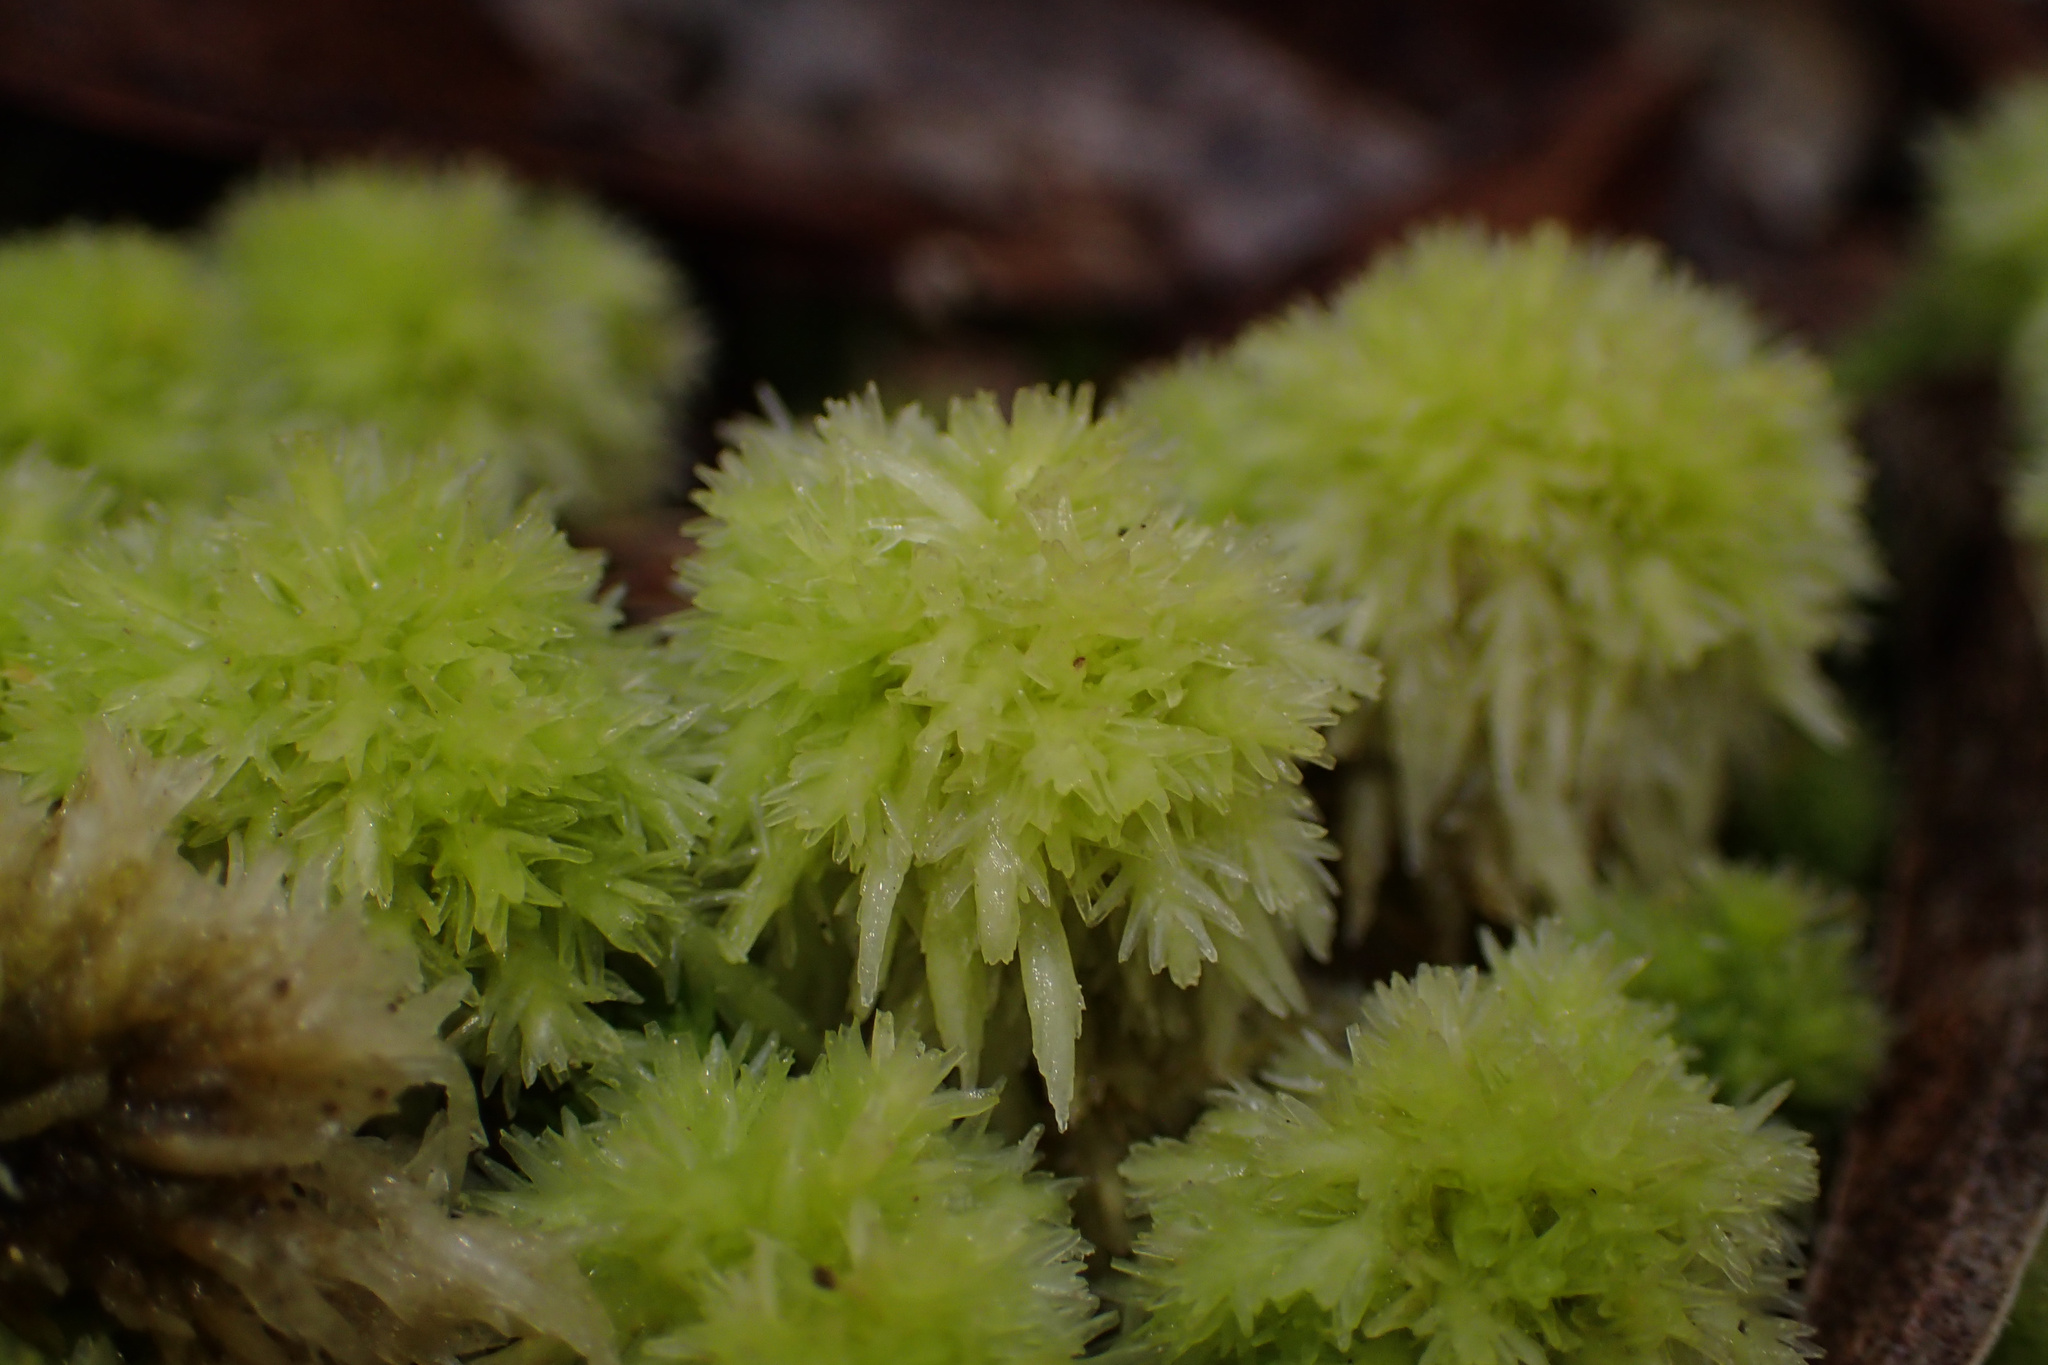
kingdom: Plantae
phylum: Bryophyta
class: Sphagnopsida
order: Sphagnales
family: Sphagnaceae
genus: Sphagnum
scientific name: Sphagnum strictum
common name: Pale bog-moss
